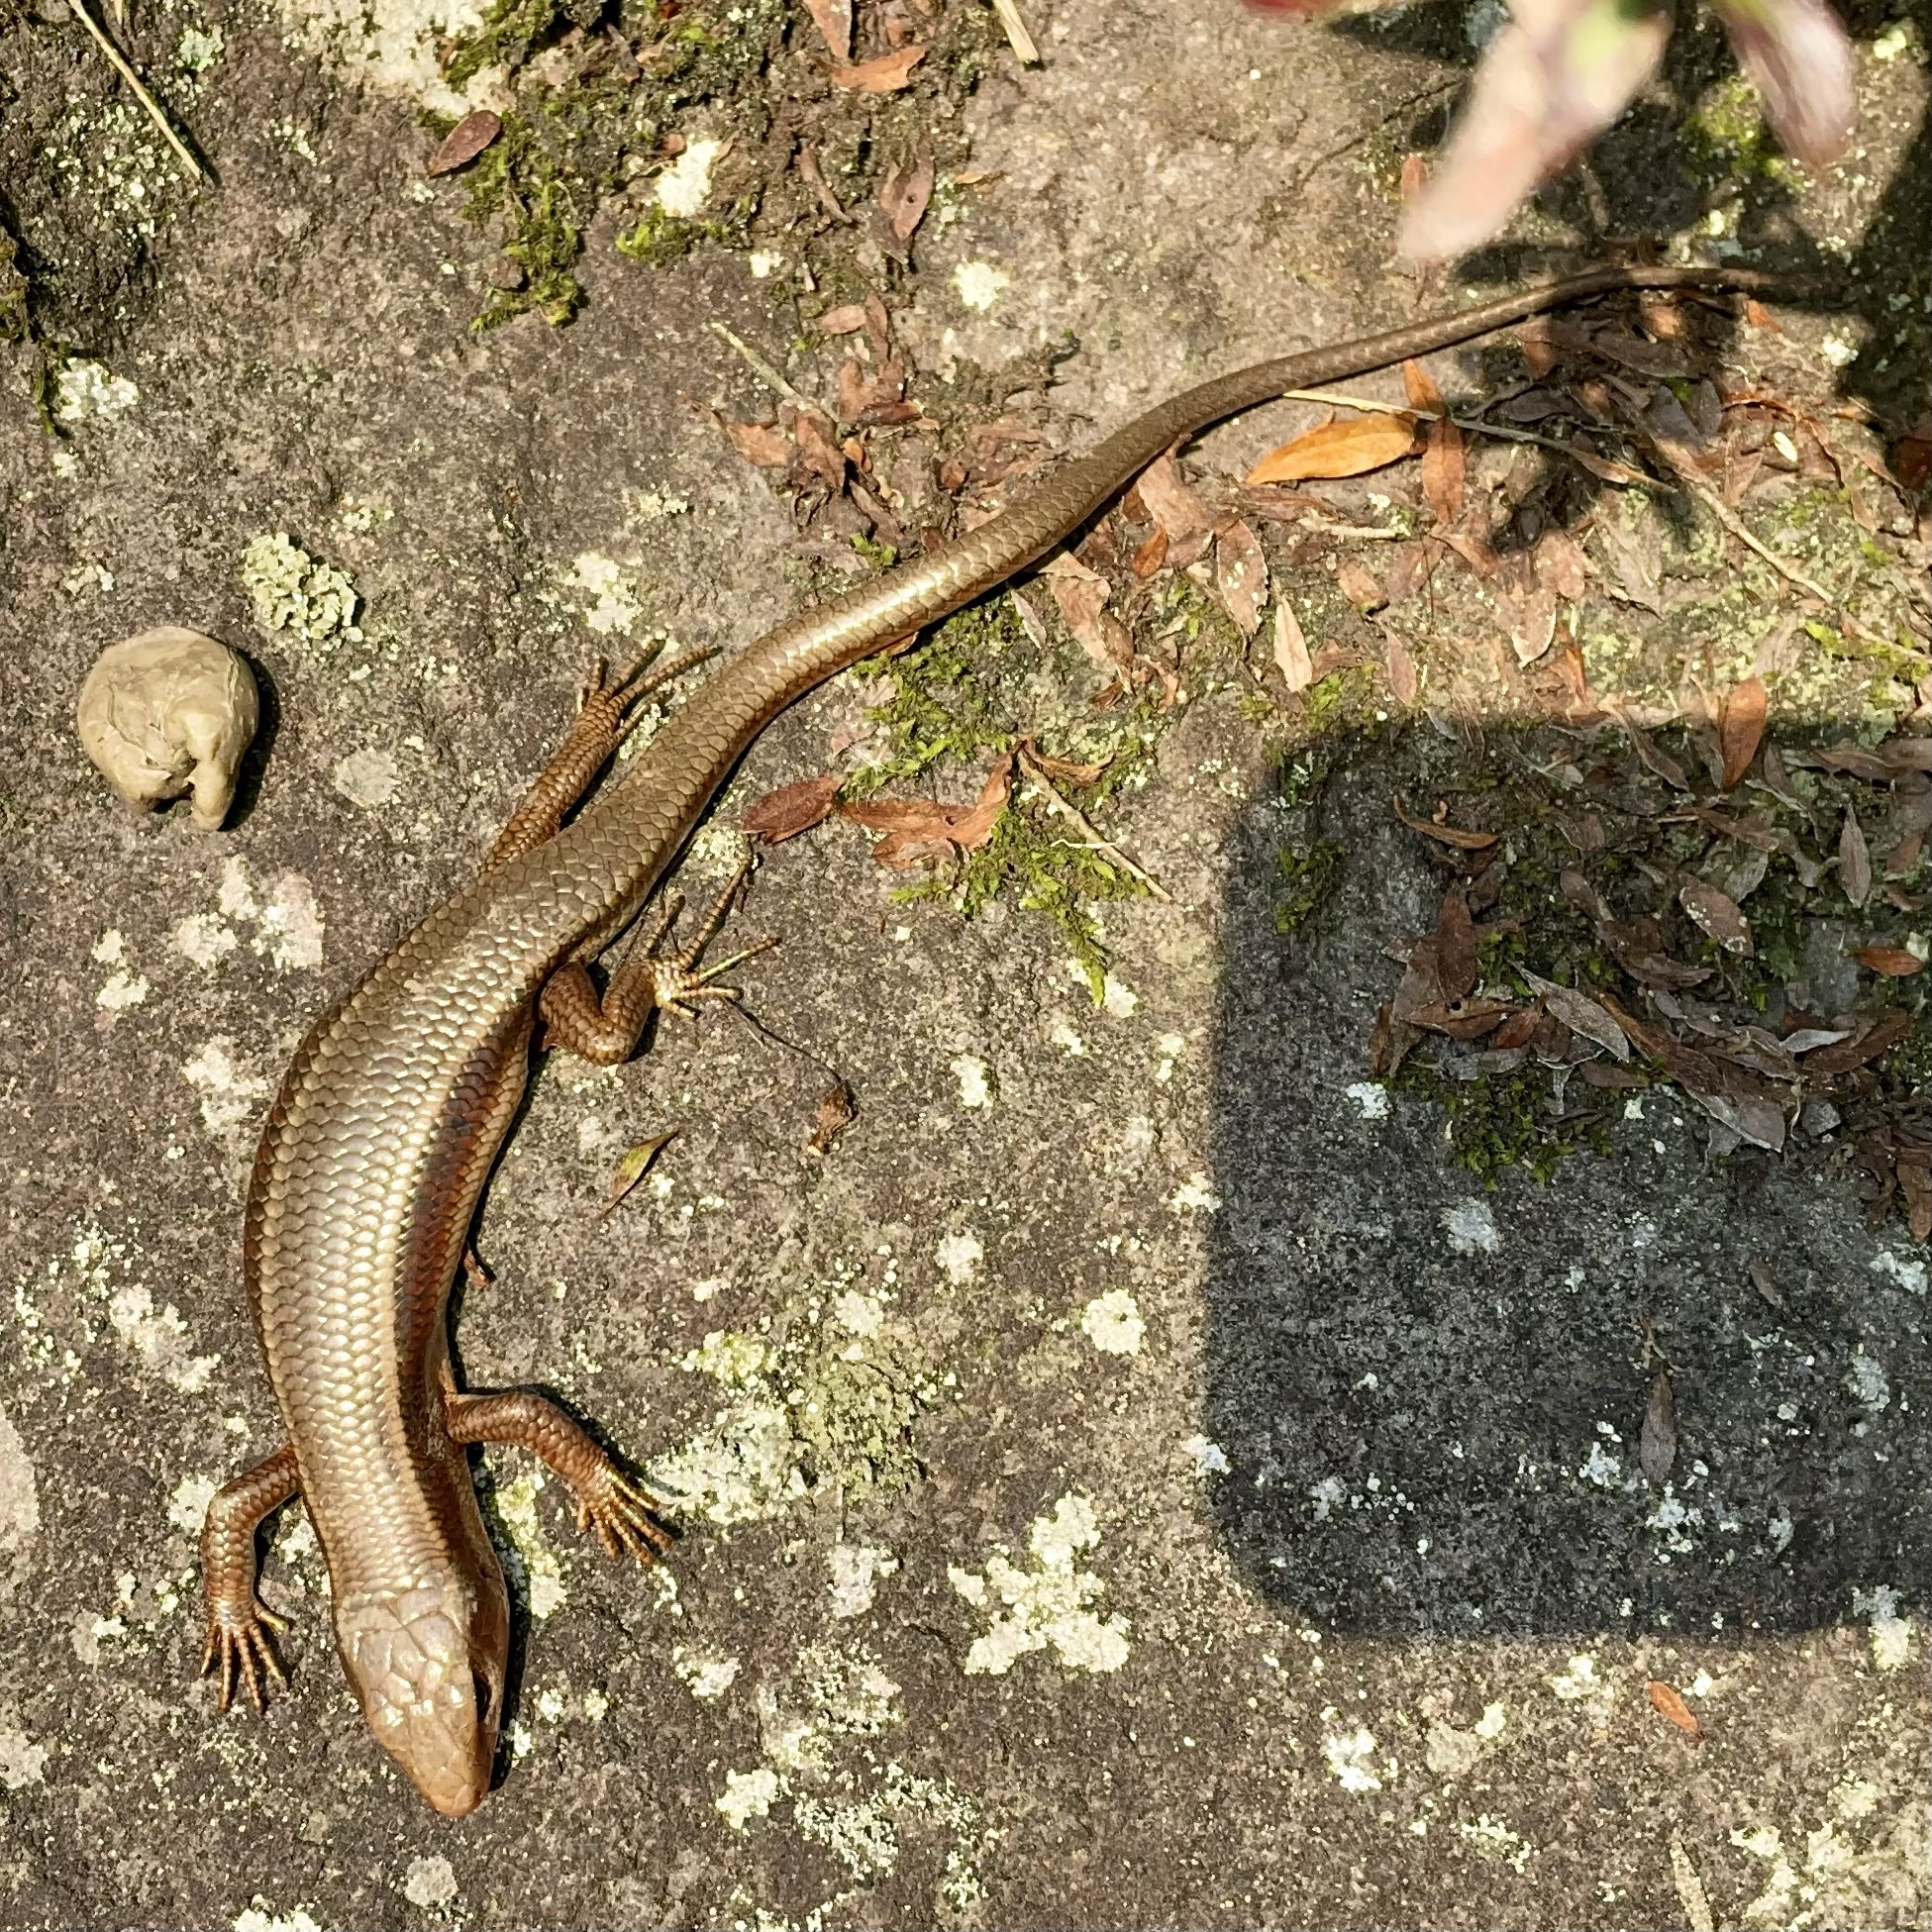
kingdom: Animalia
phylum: Chordata
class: Squamata
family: Scincidae
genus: Plestiodon
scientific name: Plestiodon finitimus
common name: Far eastern skink
